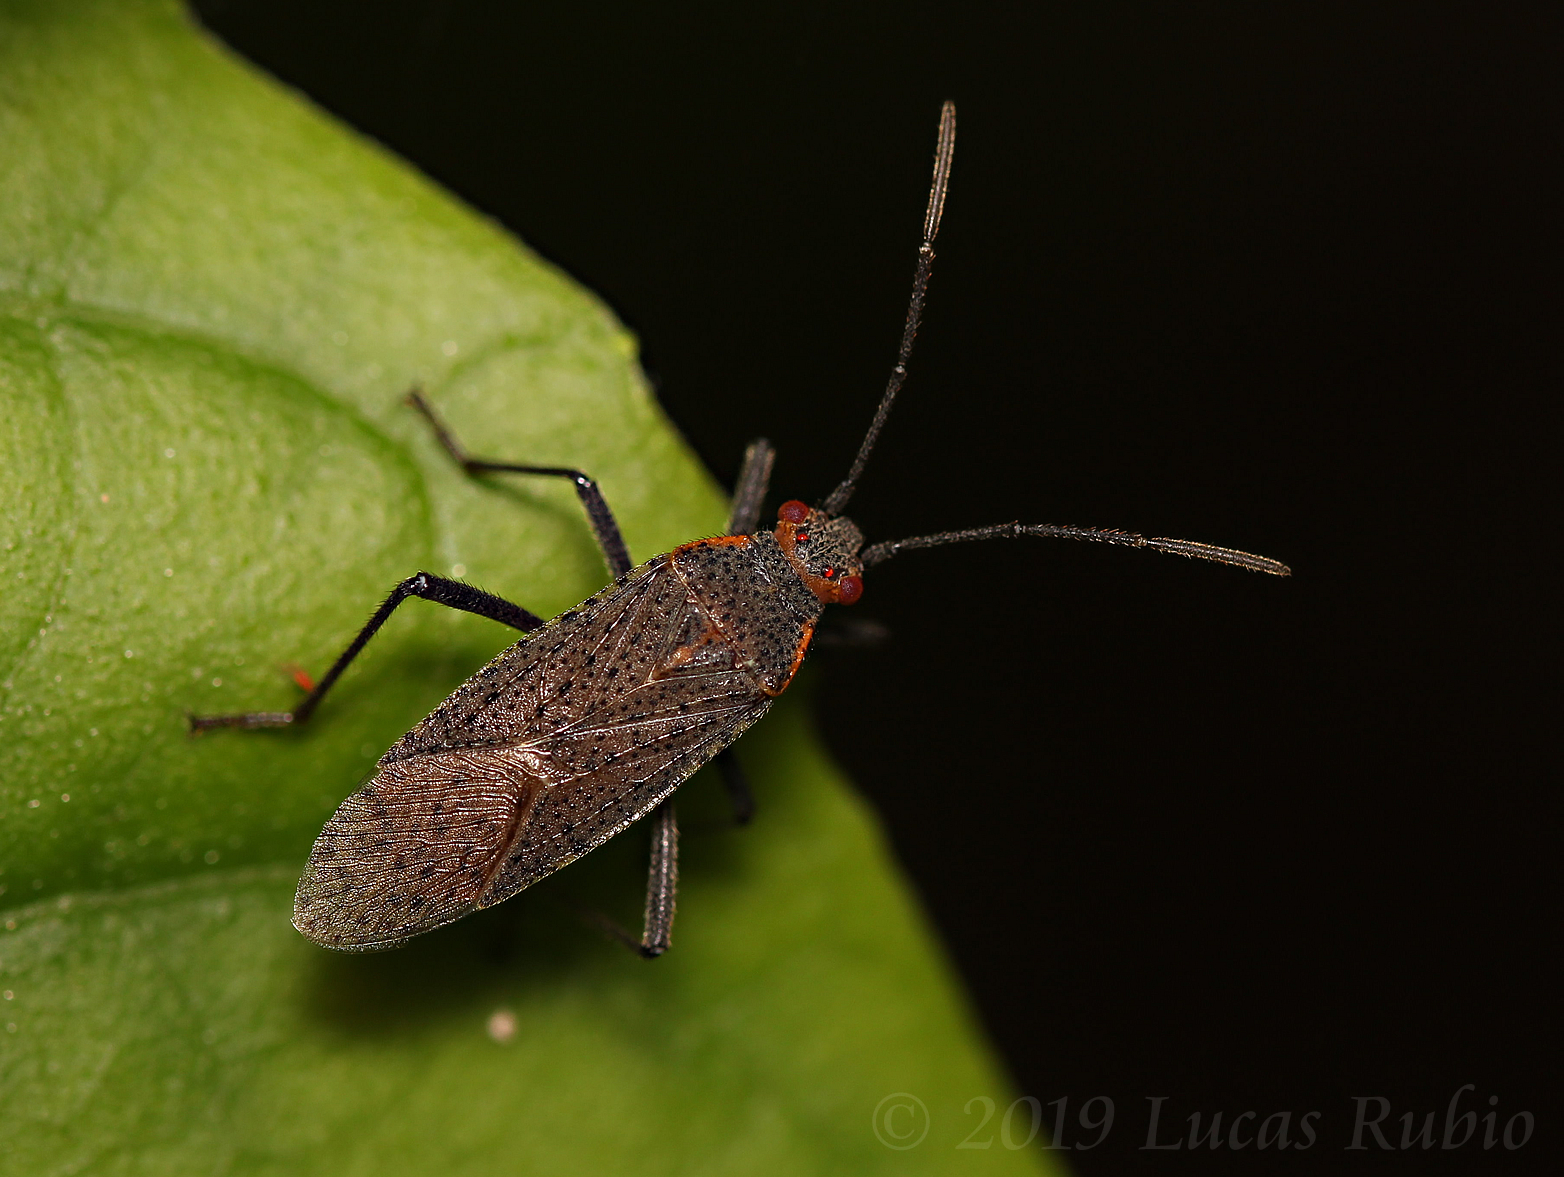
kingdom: Animalia
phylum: Arthropoda
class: Insecta
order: Hemiptera
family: Rhopalidae
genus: Jadera
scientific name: Jadera coturnix
